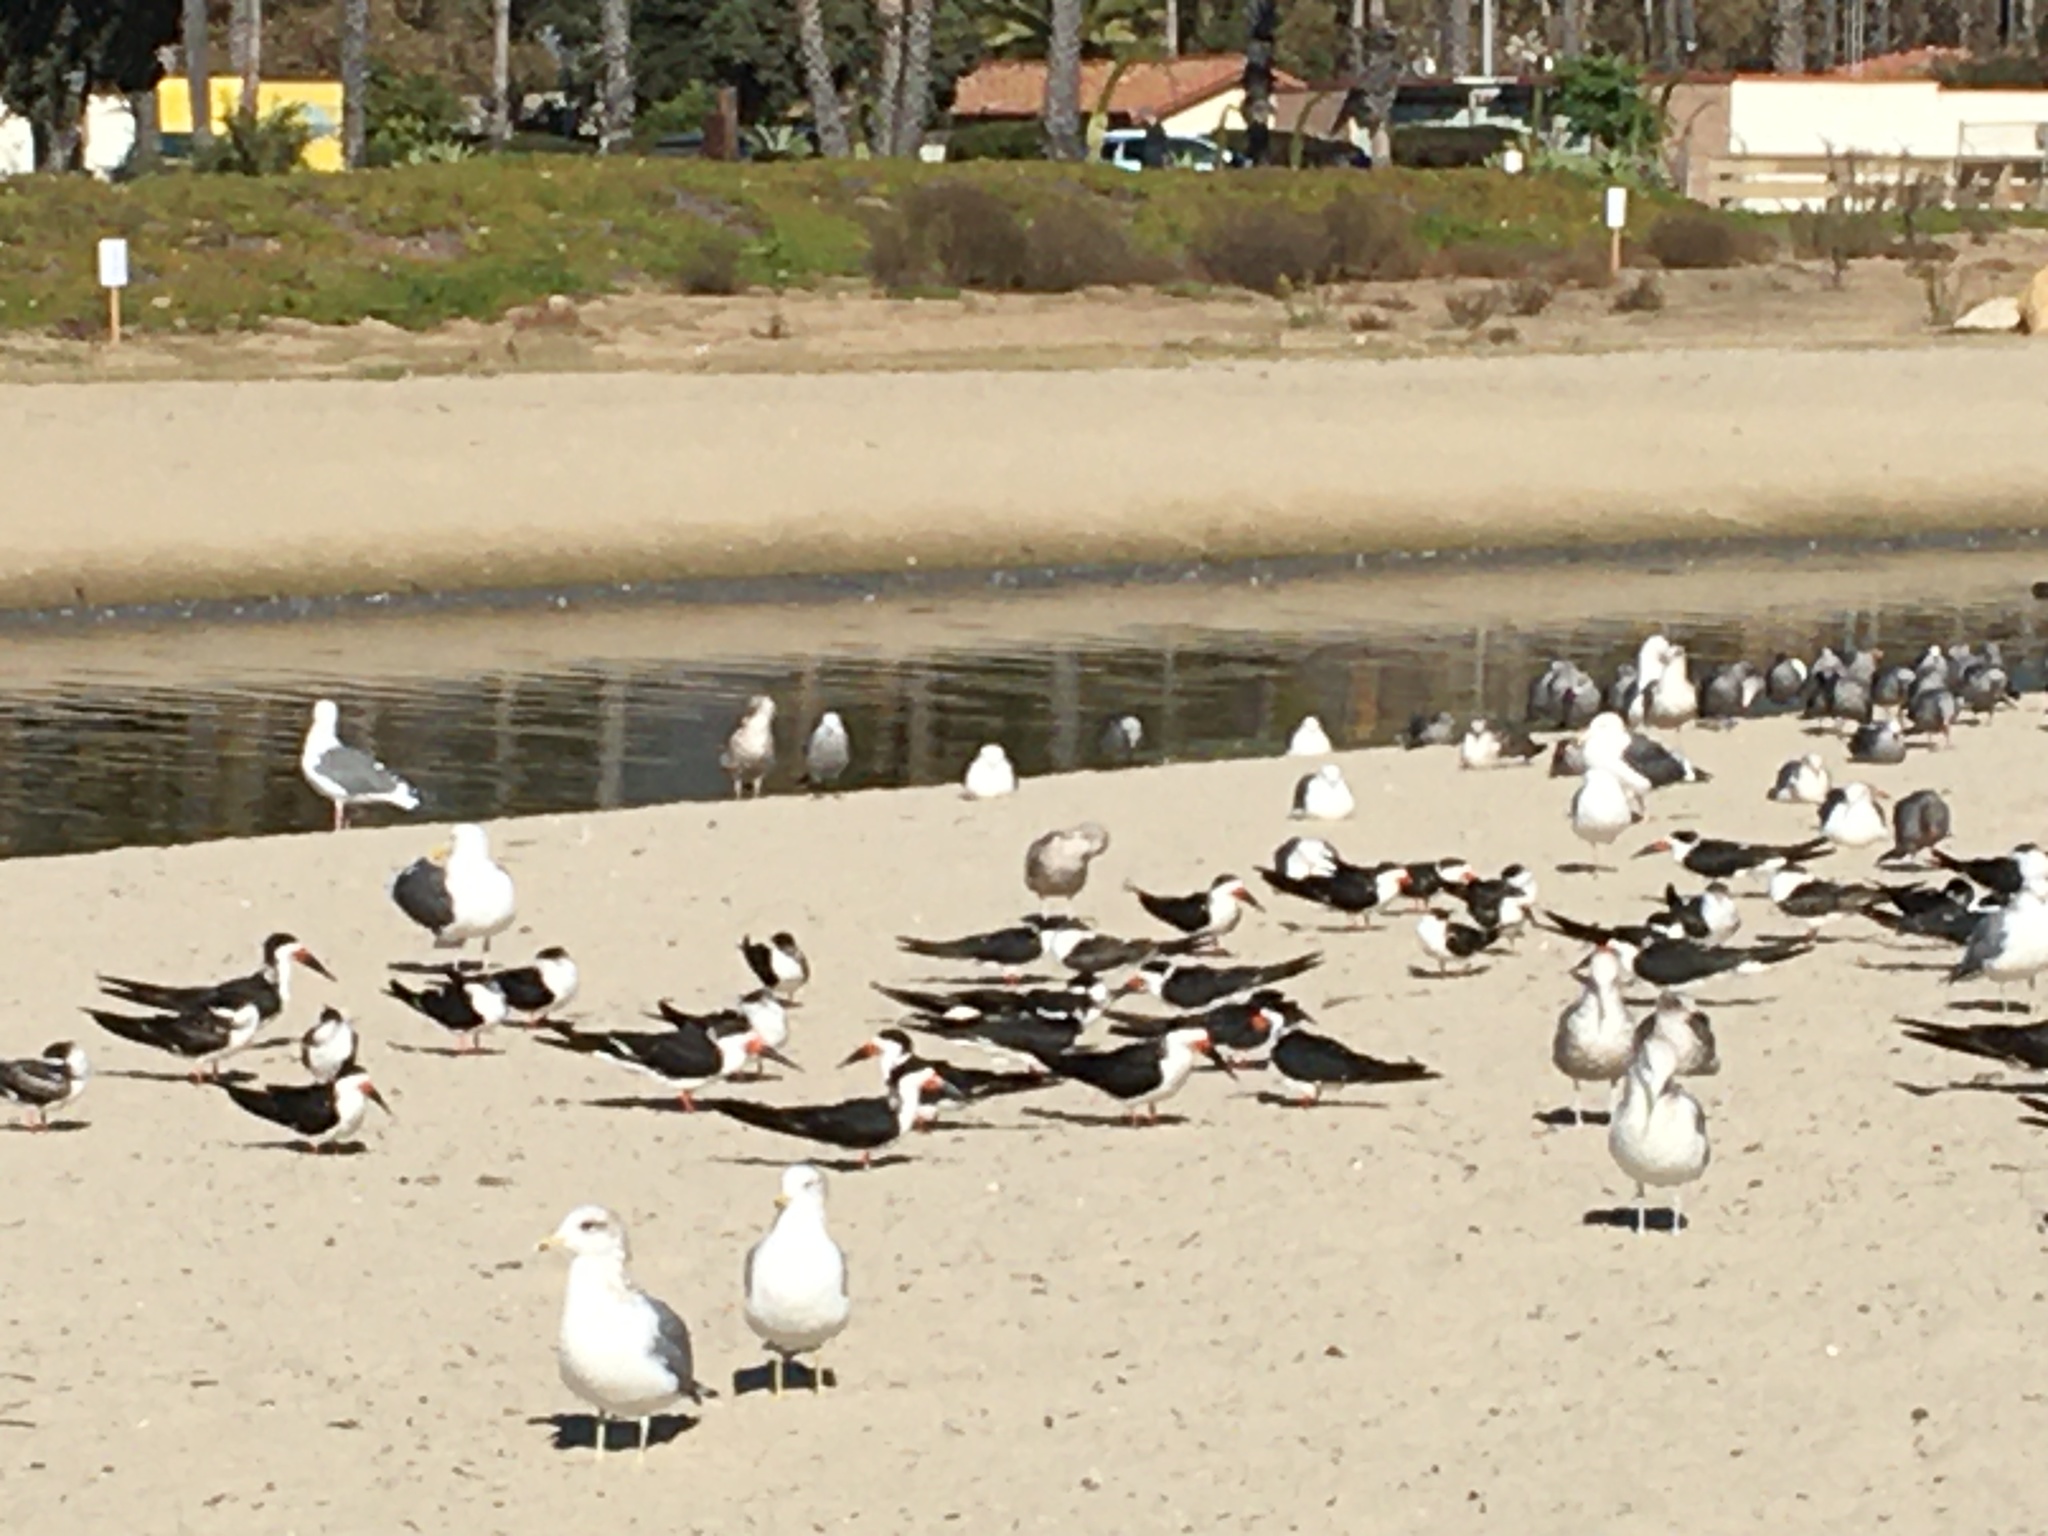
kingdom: Animalia
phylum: Chordata
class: Aves
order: Charadriiformes
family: Laridae
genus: Rynchops
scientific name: Rynchops niger
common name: Black skimmer
